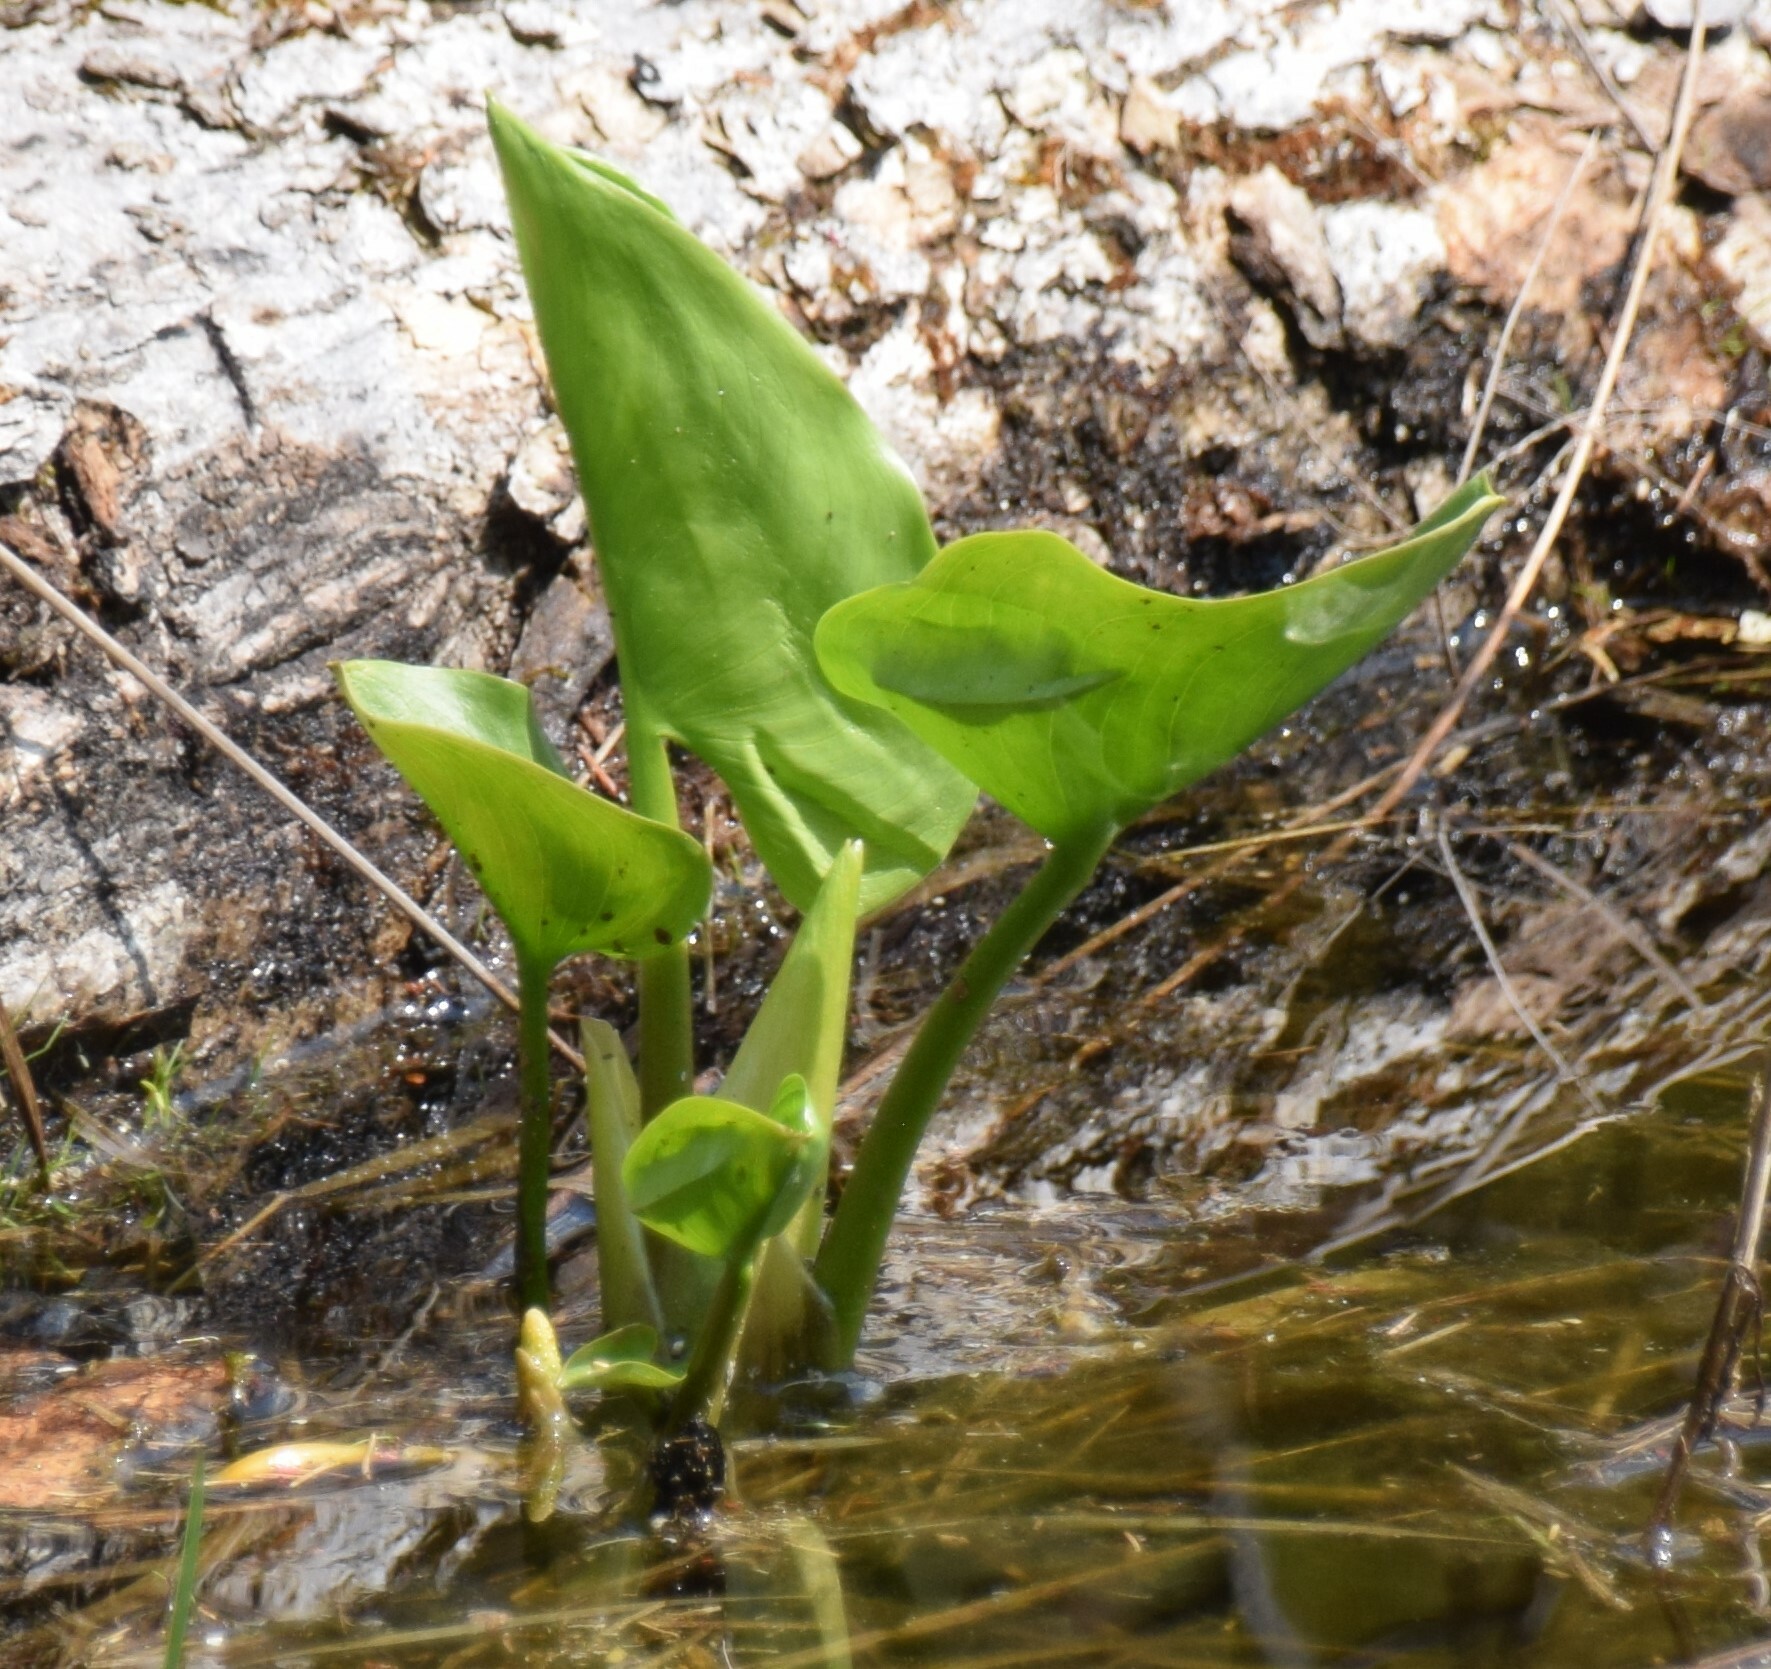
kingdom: Plantae
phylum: Tracheophyta
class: Liliopsida
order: Alismatales
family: Araceae
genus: Calla
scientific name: Calla palustris
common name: Bog arum
